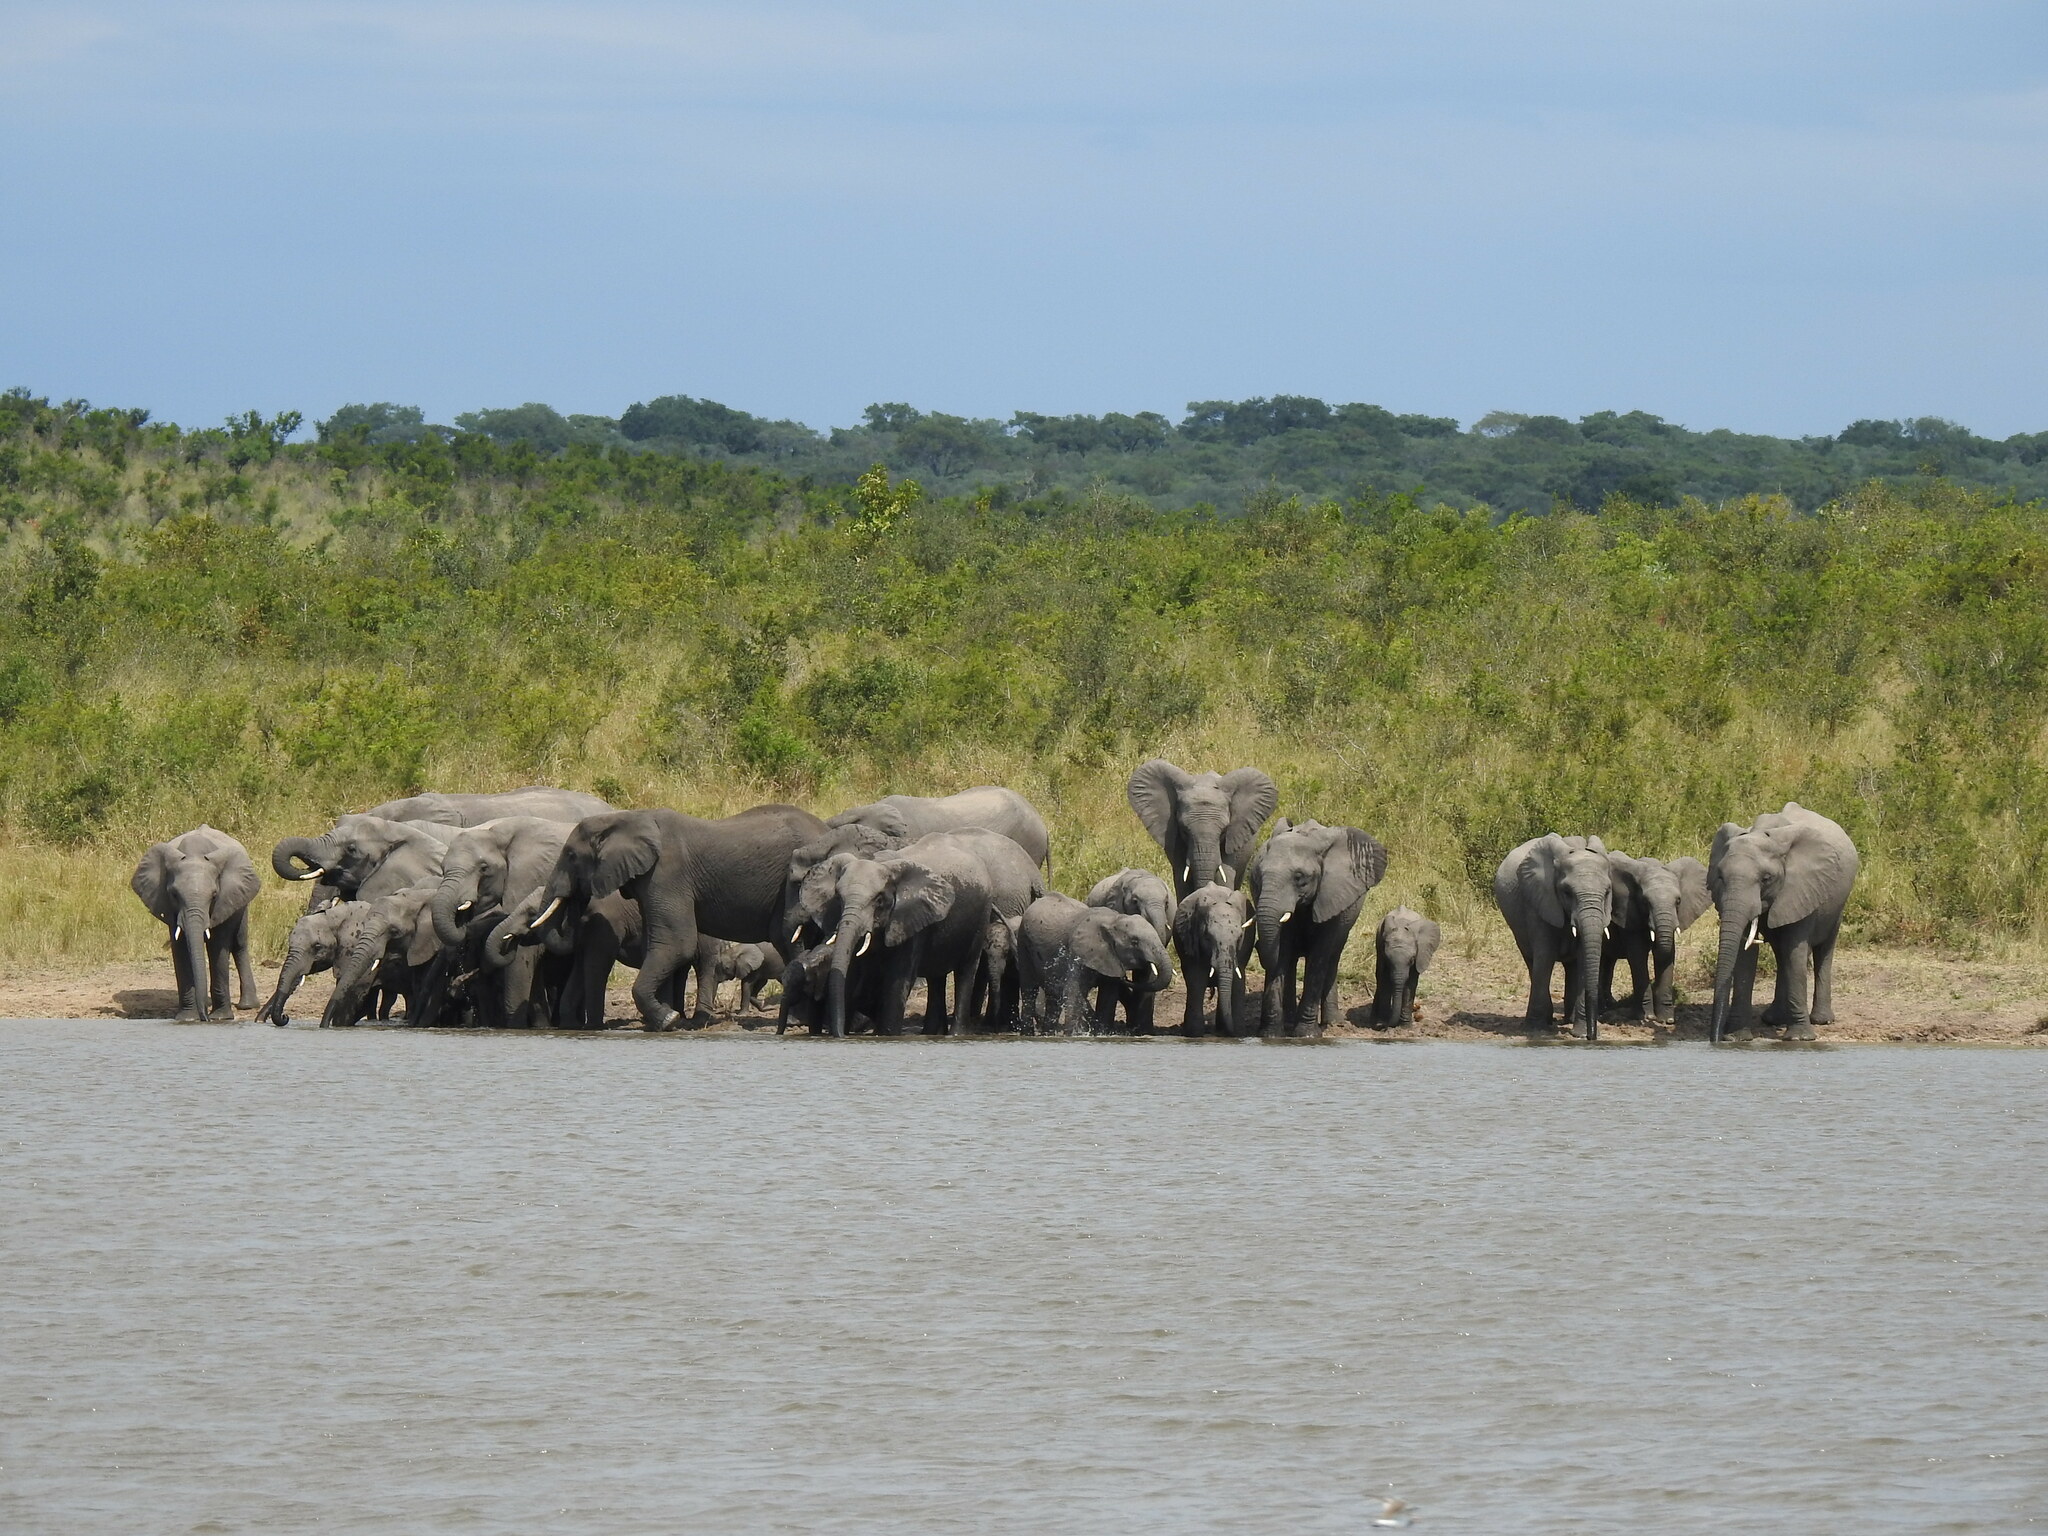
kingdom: Animalia
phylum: Chordata
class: Mammalia
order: Proboscidea
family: Elephantidae
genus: Loxodonta
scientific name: Loxodonta africana
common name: African elephant
